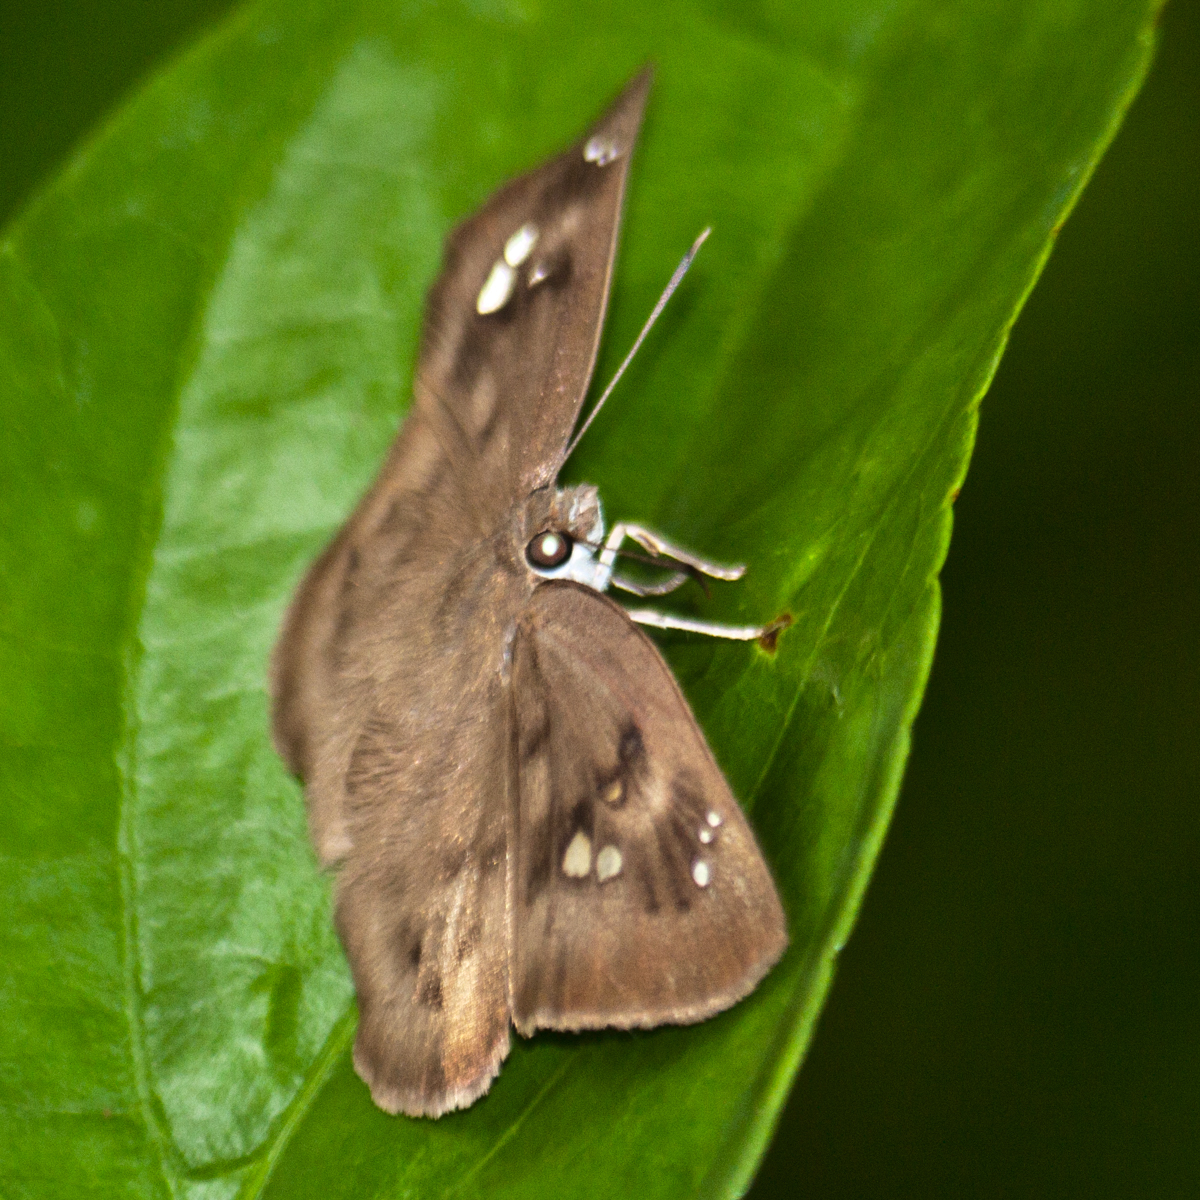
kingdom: Animalia
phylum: Arthropoda
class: Insecta
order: Lepidoptera
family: Hesperiidae
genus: Tagiades
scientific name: Tagiades japetus
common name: Pied flat
